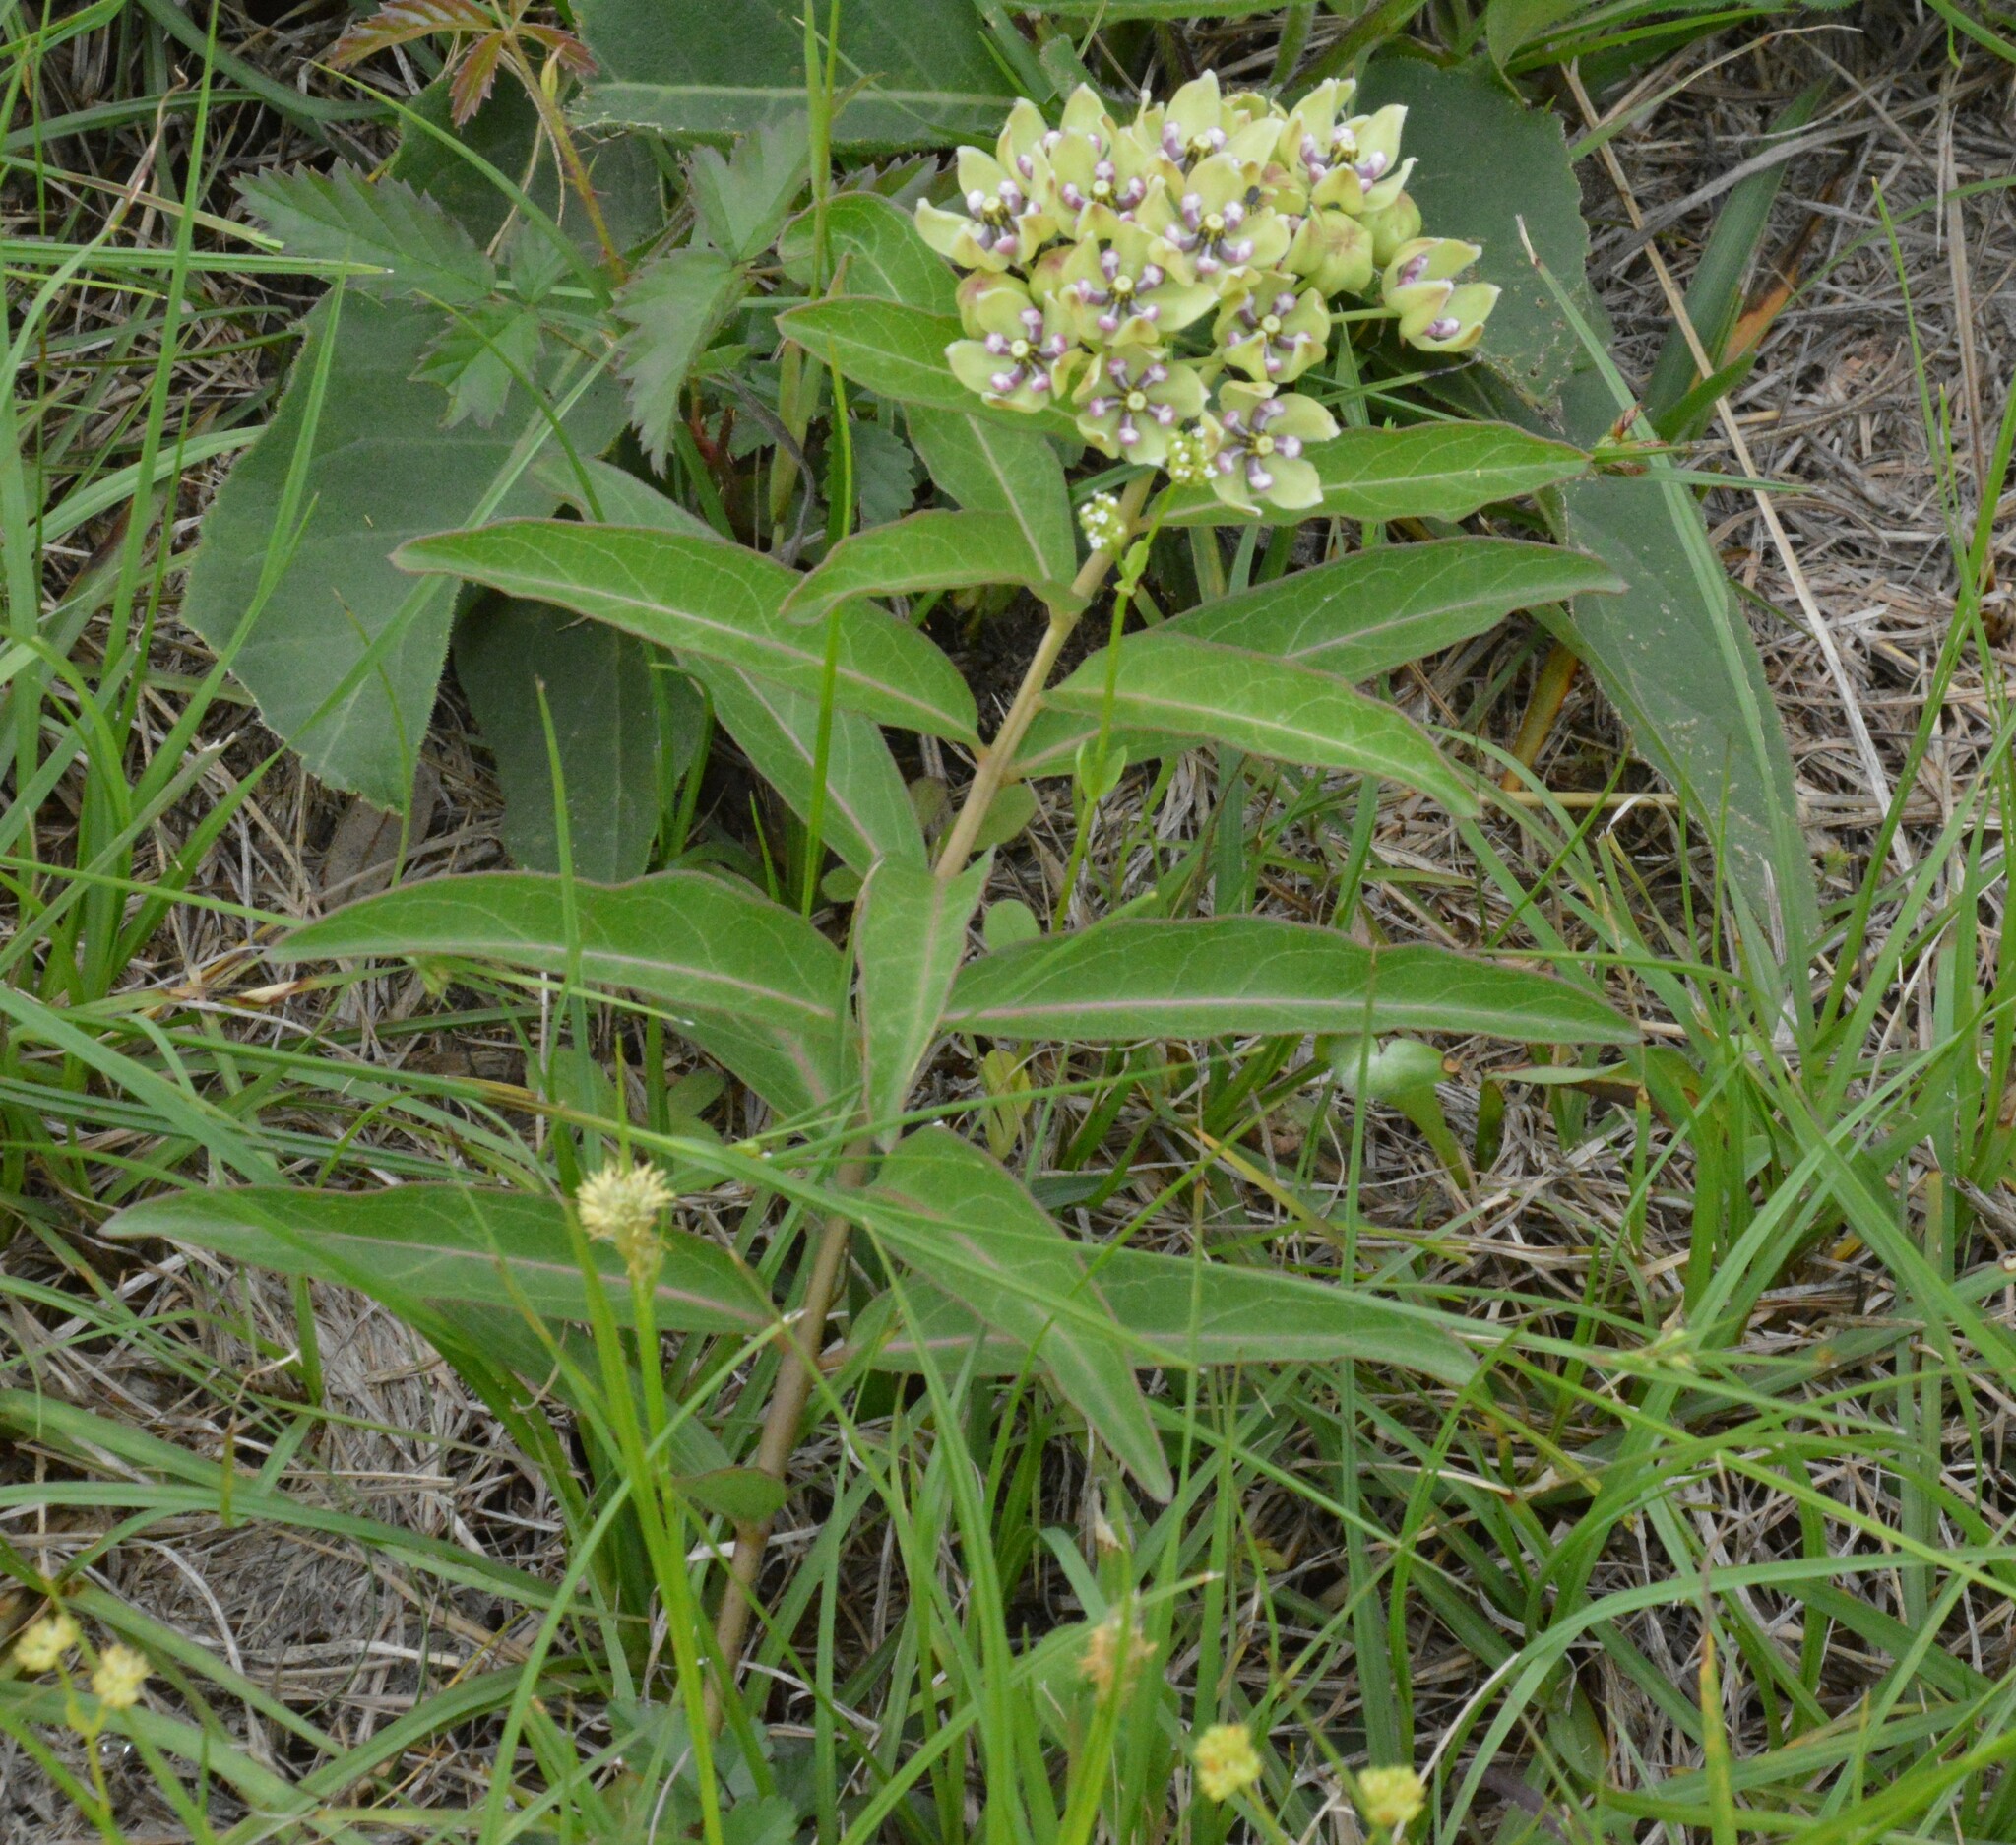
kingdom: Plantae
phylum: Tracheophyta
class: Magnoliopsida
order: Gentianales
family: Apocynaceae
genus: Asclepias
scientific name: Asclepias viridis
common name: Antelope-horns
